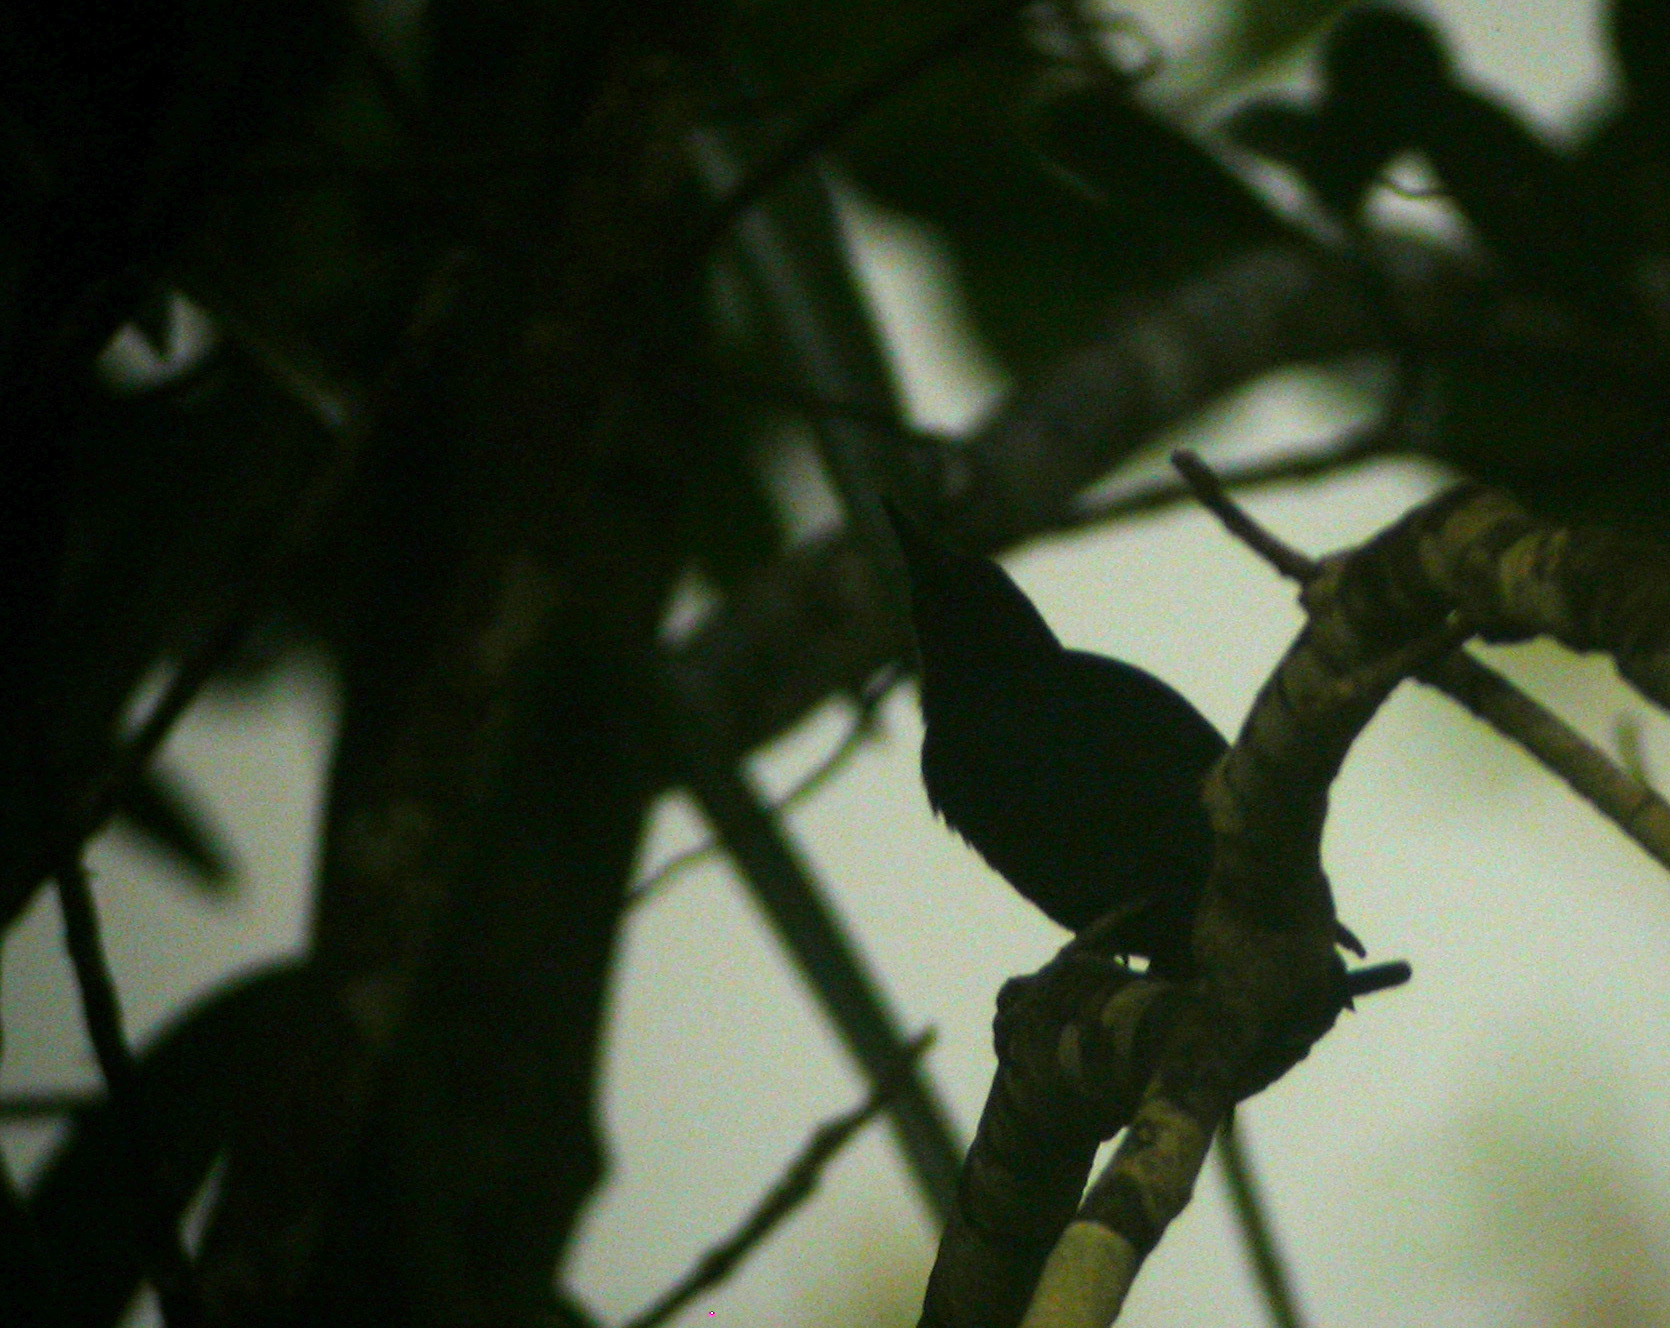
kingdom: Animalia
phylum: Chordata
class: Aves
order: Piciformes
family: Picidae
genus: Melanerpes
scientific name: Melanerpes herminieri
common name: Guadeloupe woodpecker
